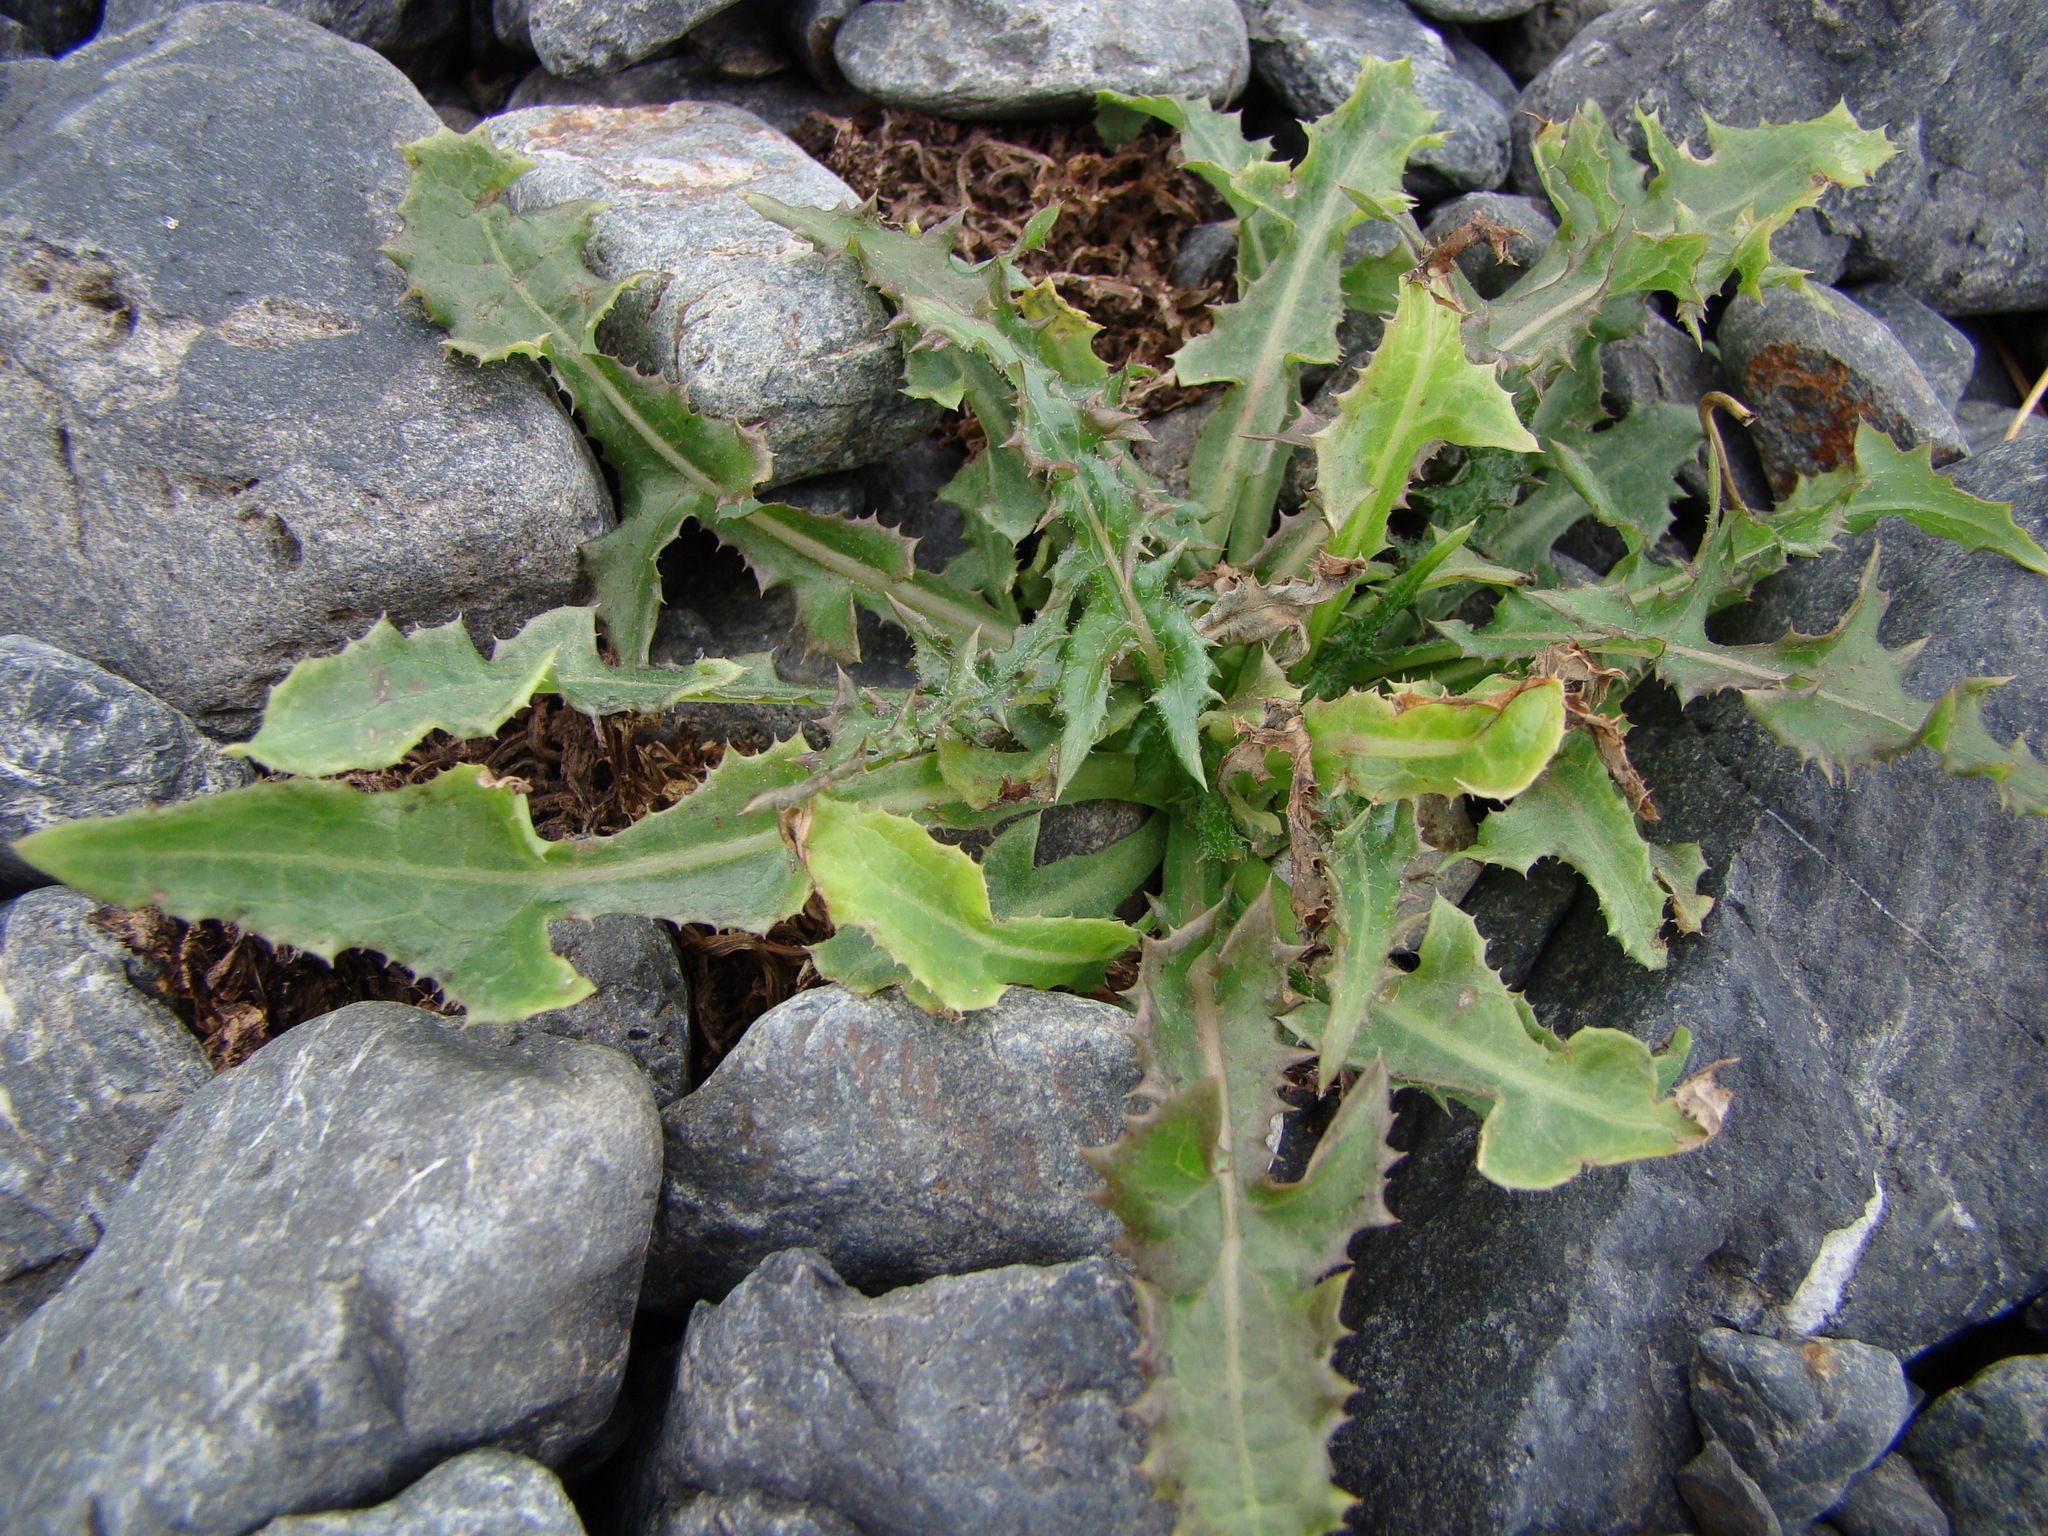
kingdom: Plantae
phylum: Tracheophyta
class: Magnoliopsida
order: Asterales
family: Asteraceae
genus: Sonchus
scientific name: Sonchus asper
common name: Prickly sow-thistle
